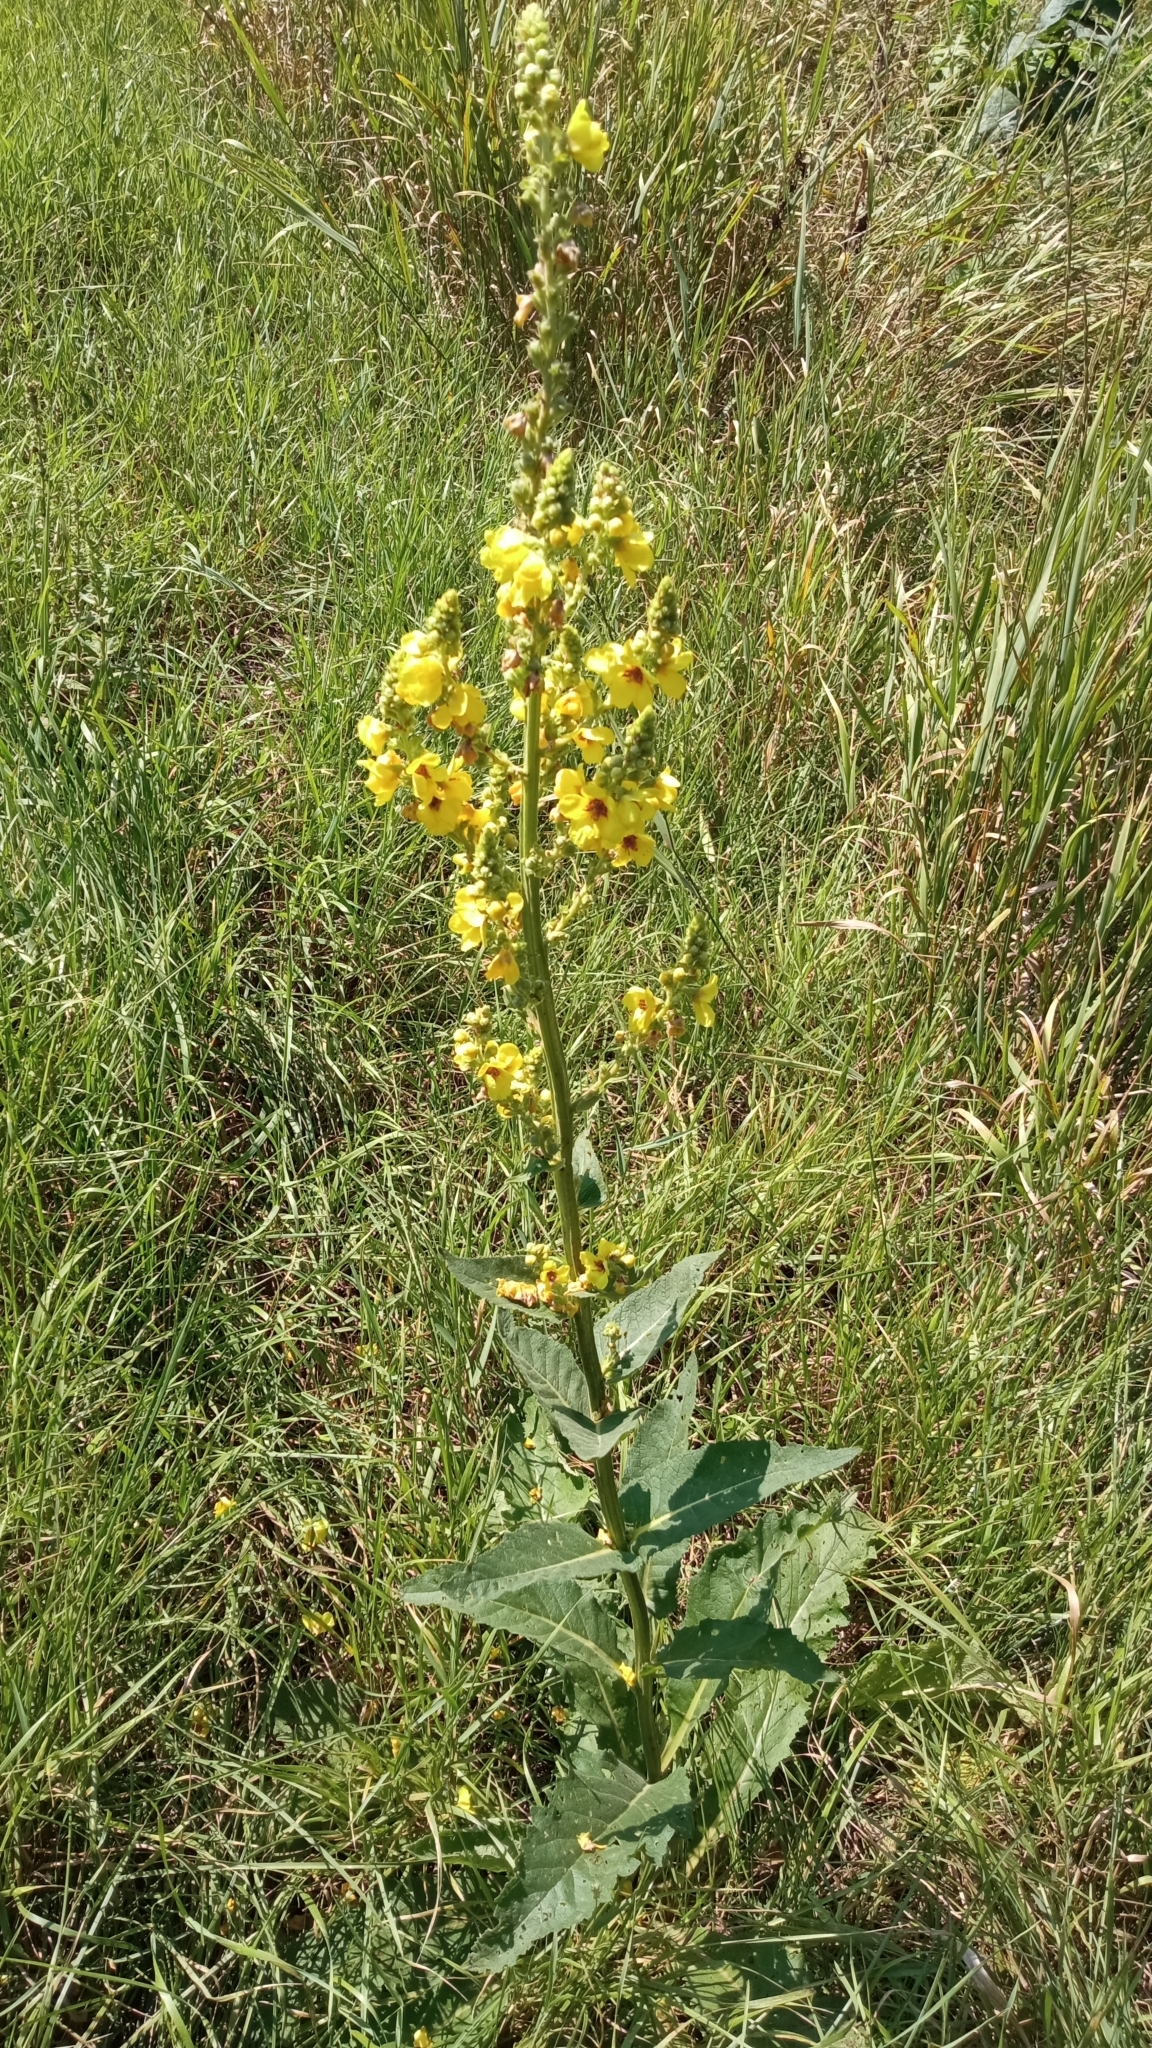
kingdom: Plantae
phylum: Tracheophyta
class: Magnoliopsida
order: Lamiales
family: Scrophulariaceae
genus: Verbascum
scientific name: Verbascum pyramidatum
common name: Caucasian mullein
